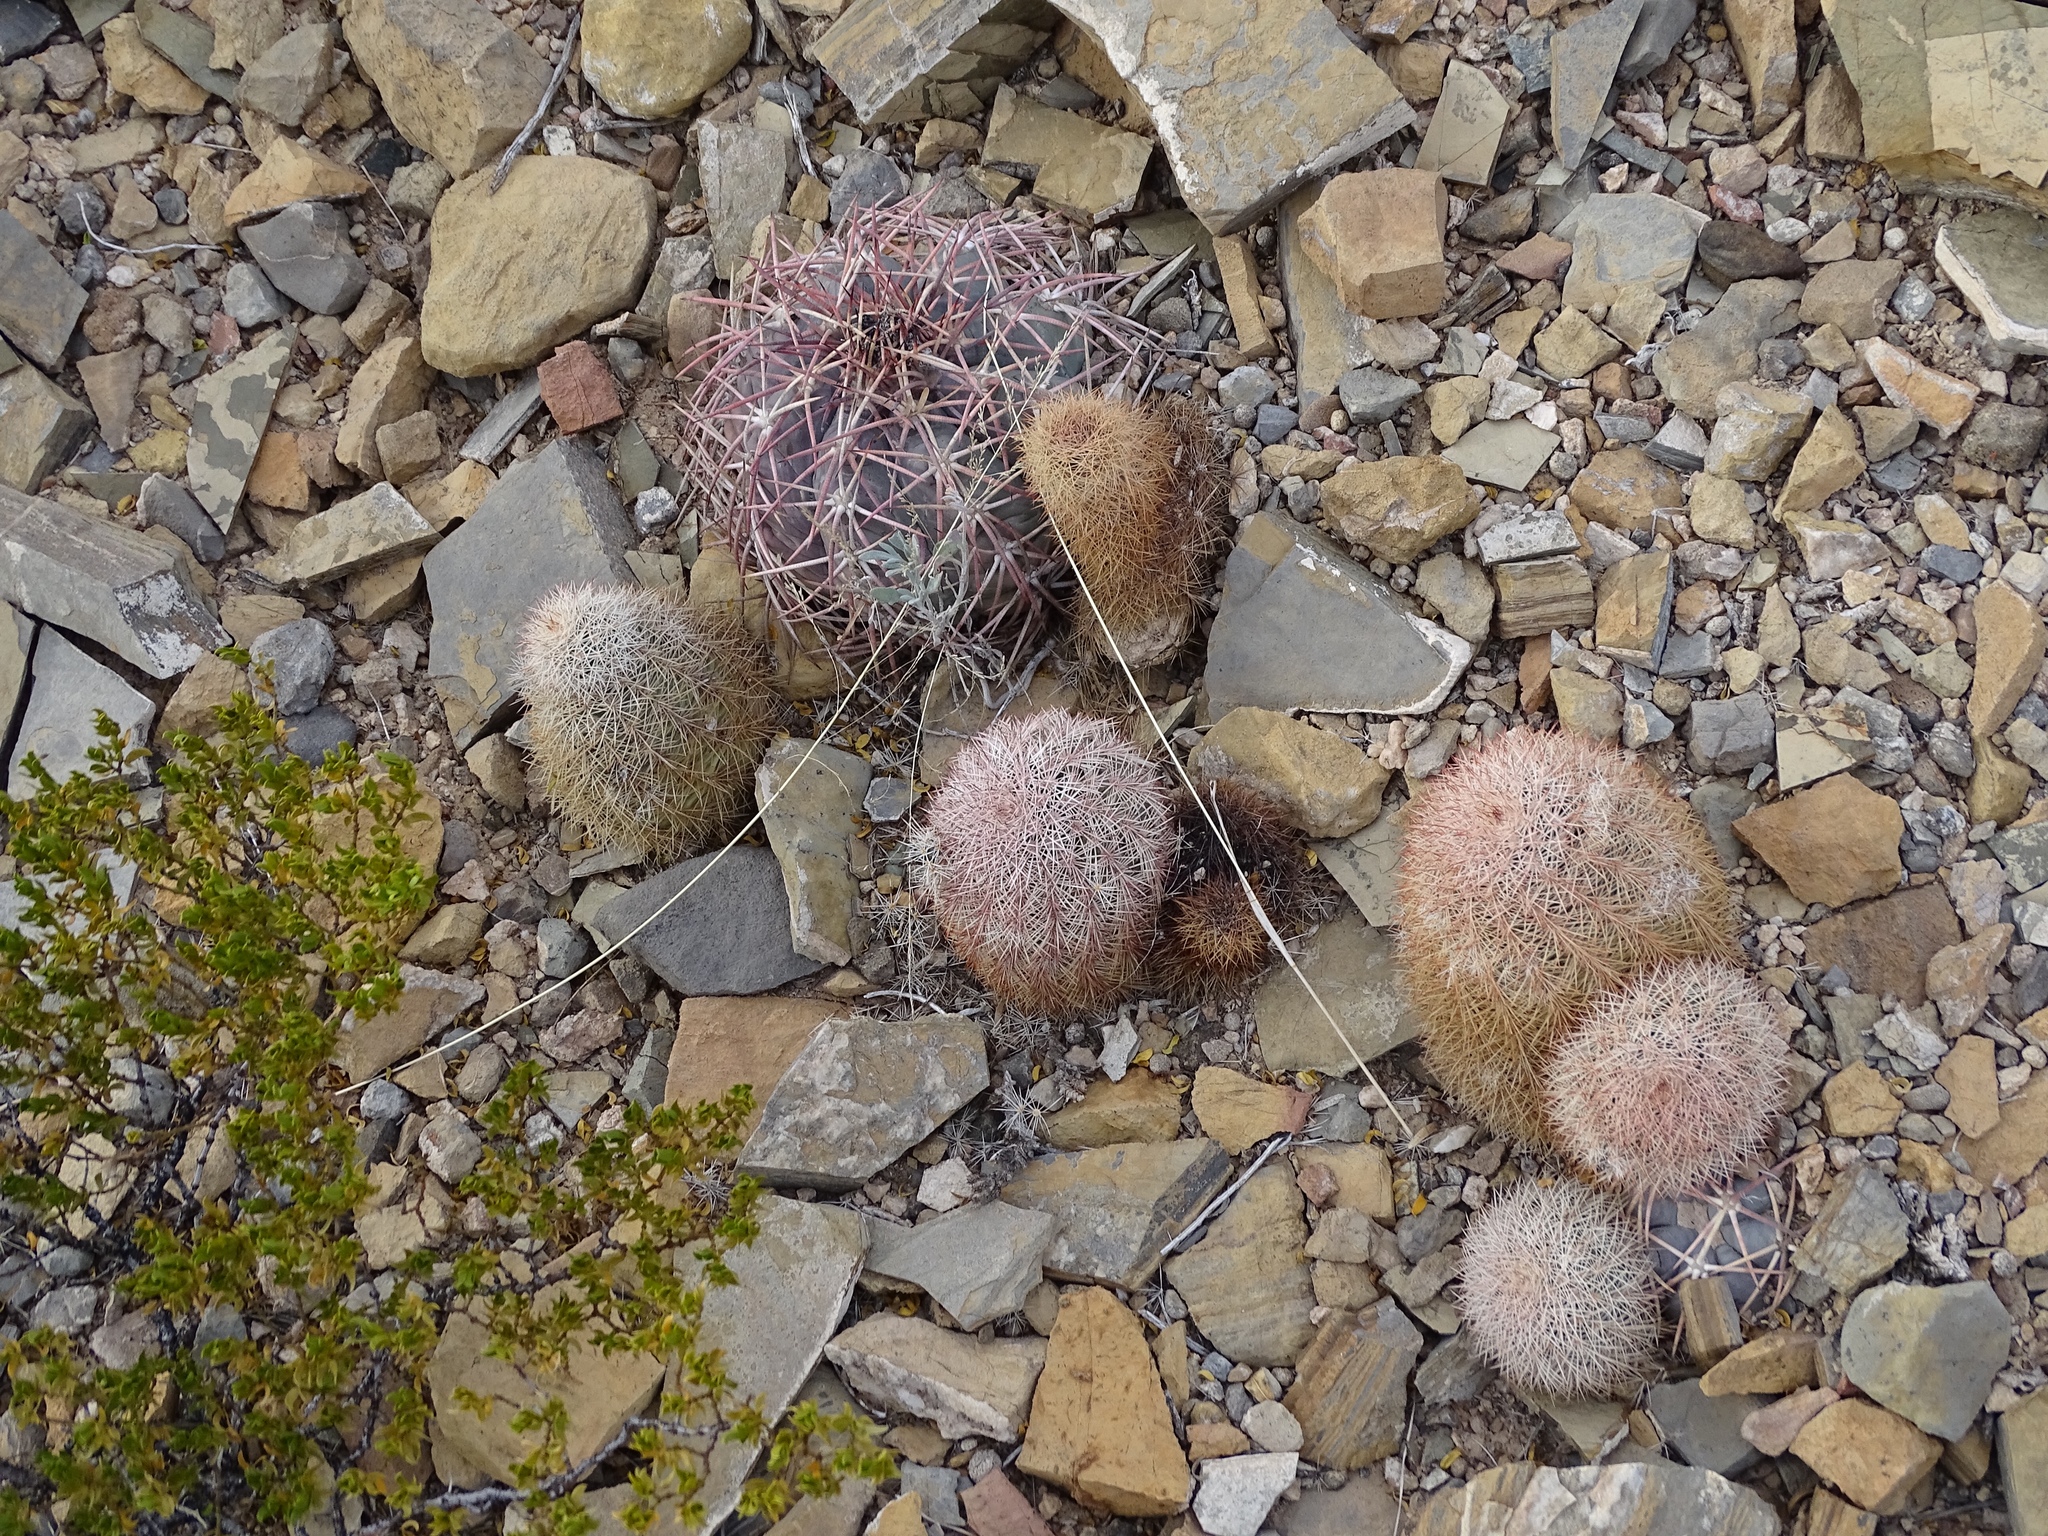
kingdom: Plantae
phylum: Tracheophyta
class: Magnoliopsida
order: Caryophyllales
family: Cactaceae
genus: Echinocactus
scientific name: Echinocactus horizonthalonius
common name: Devilshead
